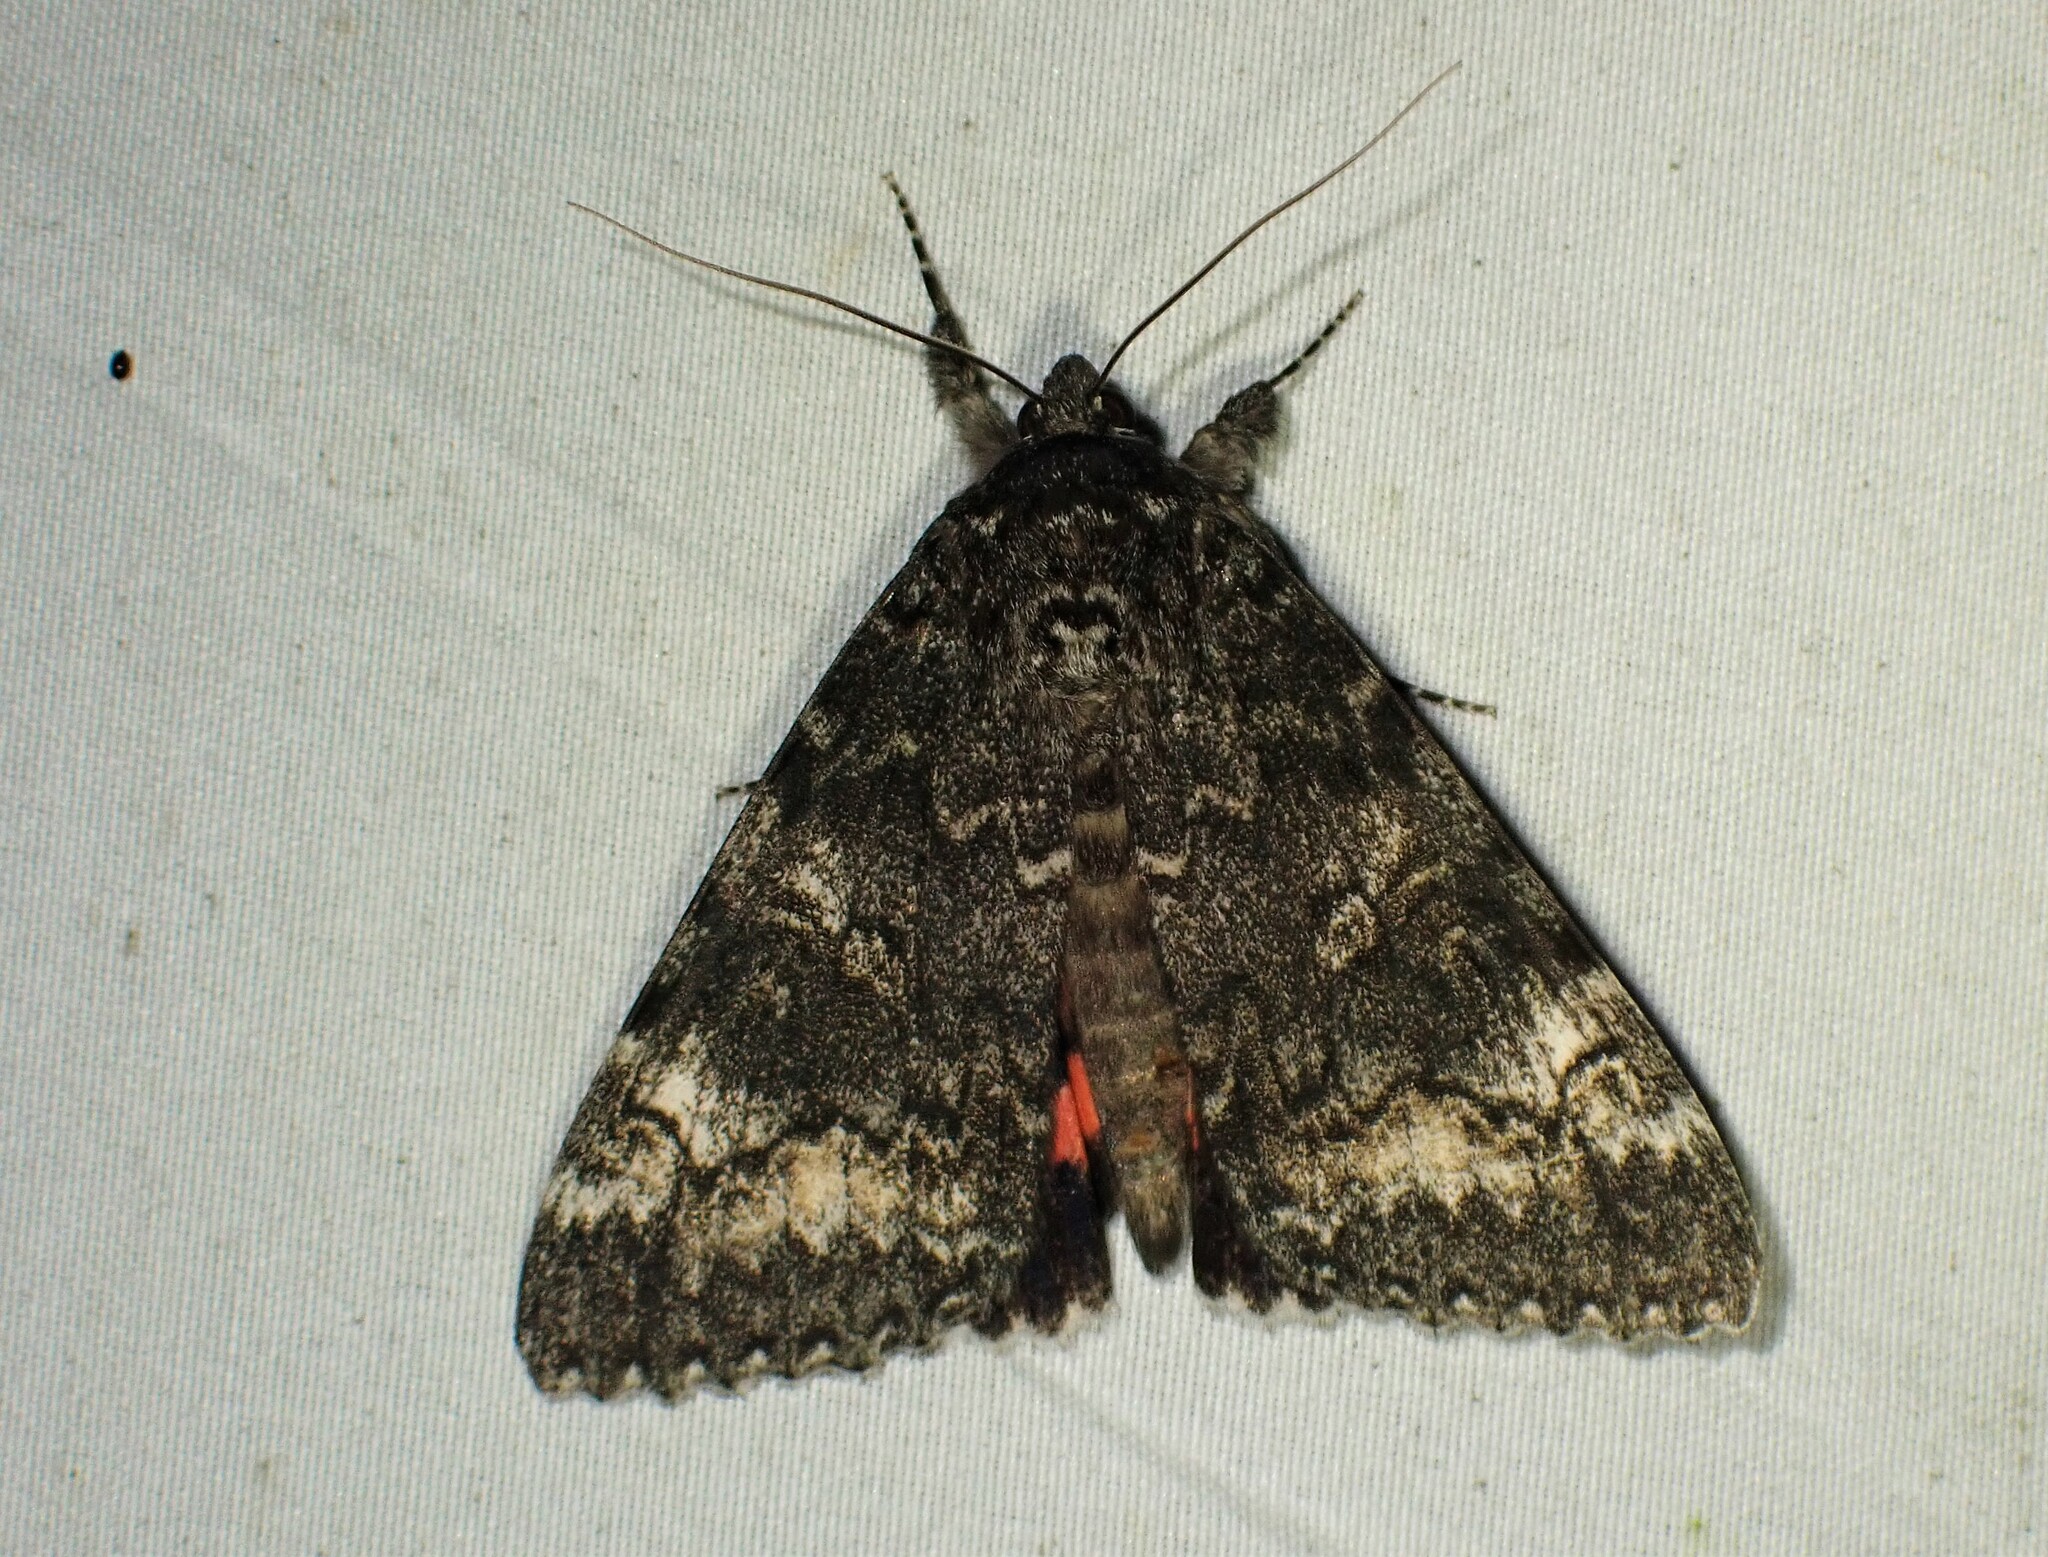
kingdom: Animalia
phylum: Arthropoda
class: Insecta
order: Lepidoptera
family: Erebidae
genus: Catocala
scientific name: Catocala briseis
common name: Briseis underwing
